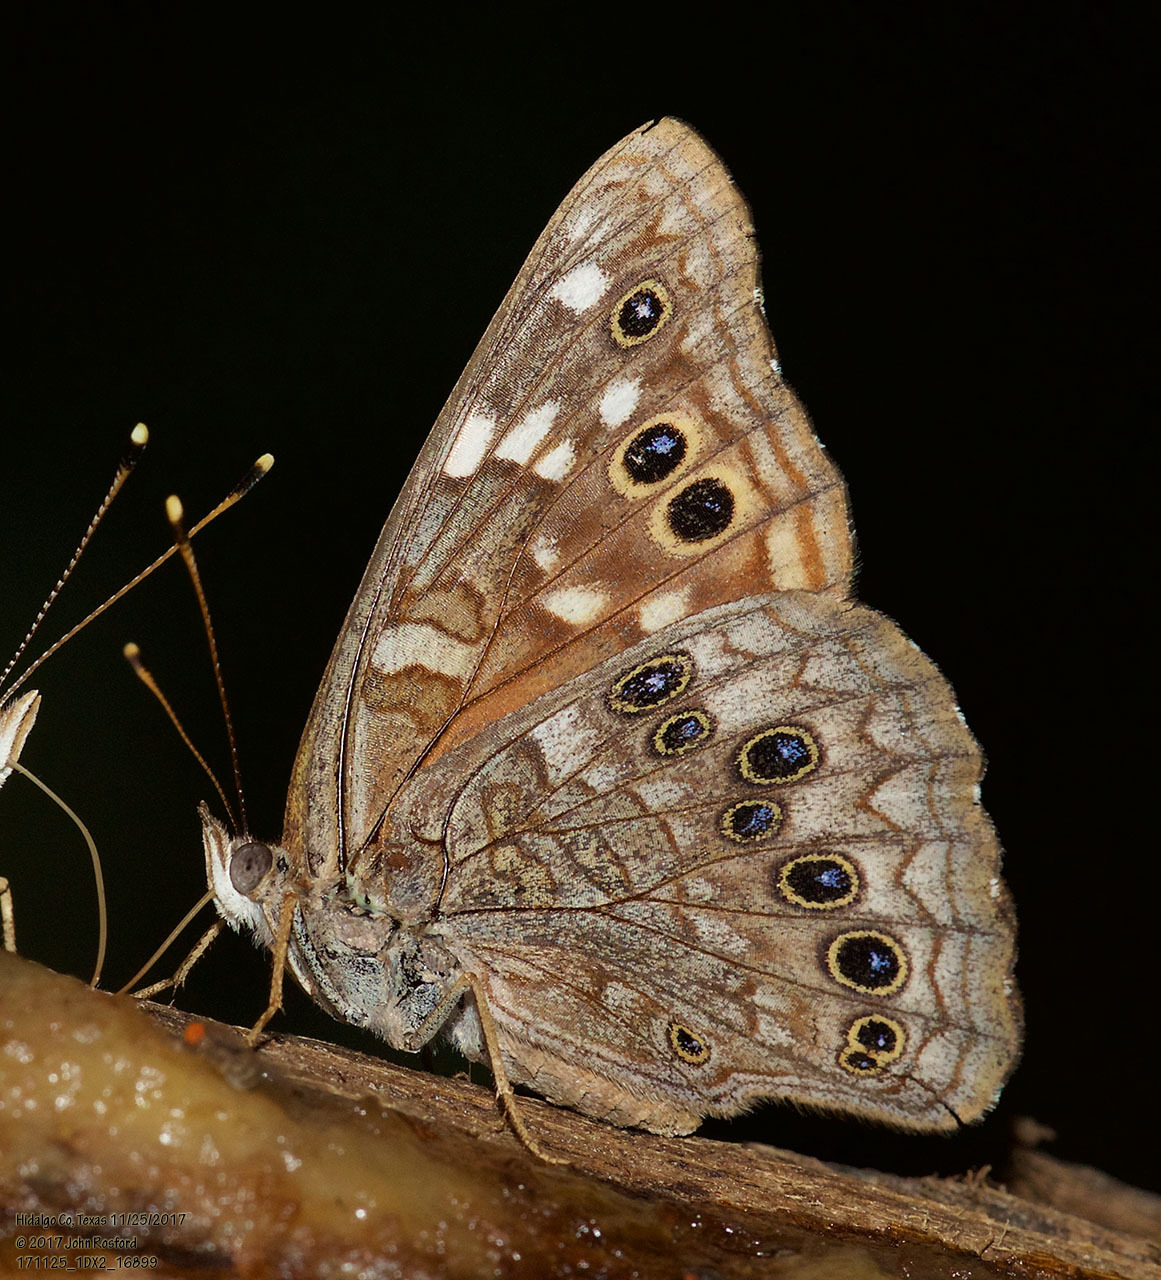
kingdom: Animalia
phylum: Arthropoda
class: Insecta
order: Lepidoptera
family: Nymphalidae
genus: Asterocampa
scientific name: Asterocampa leilia
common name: Empress leilia
